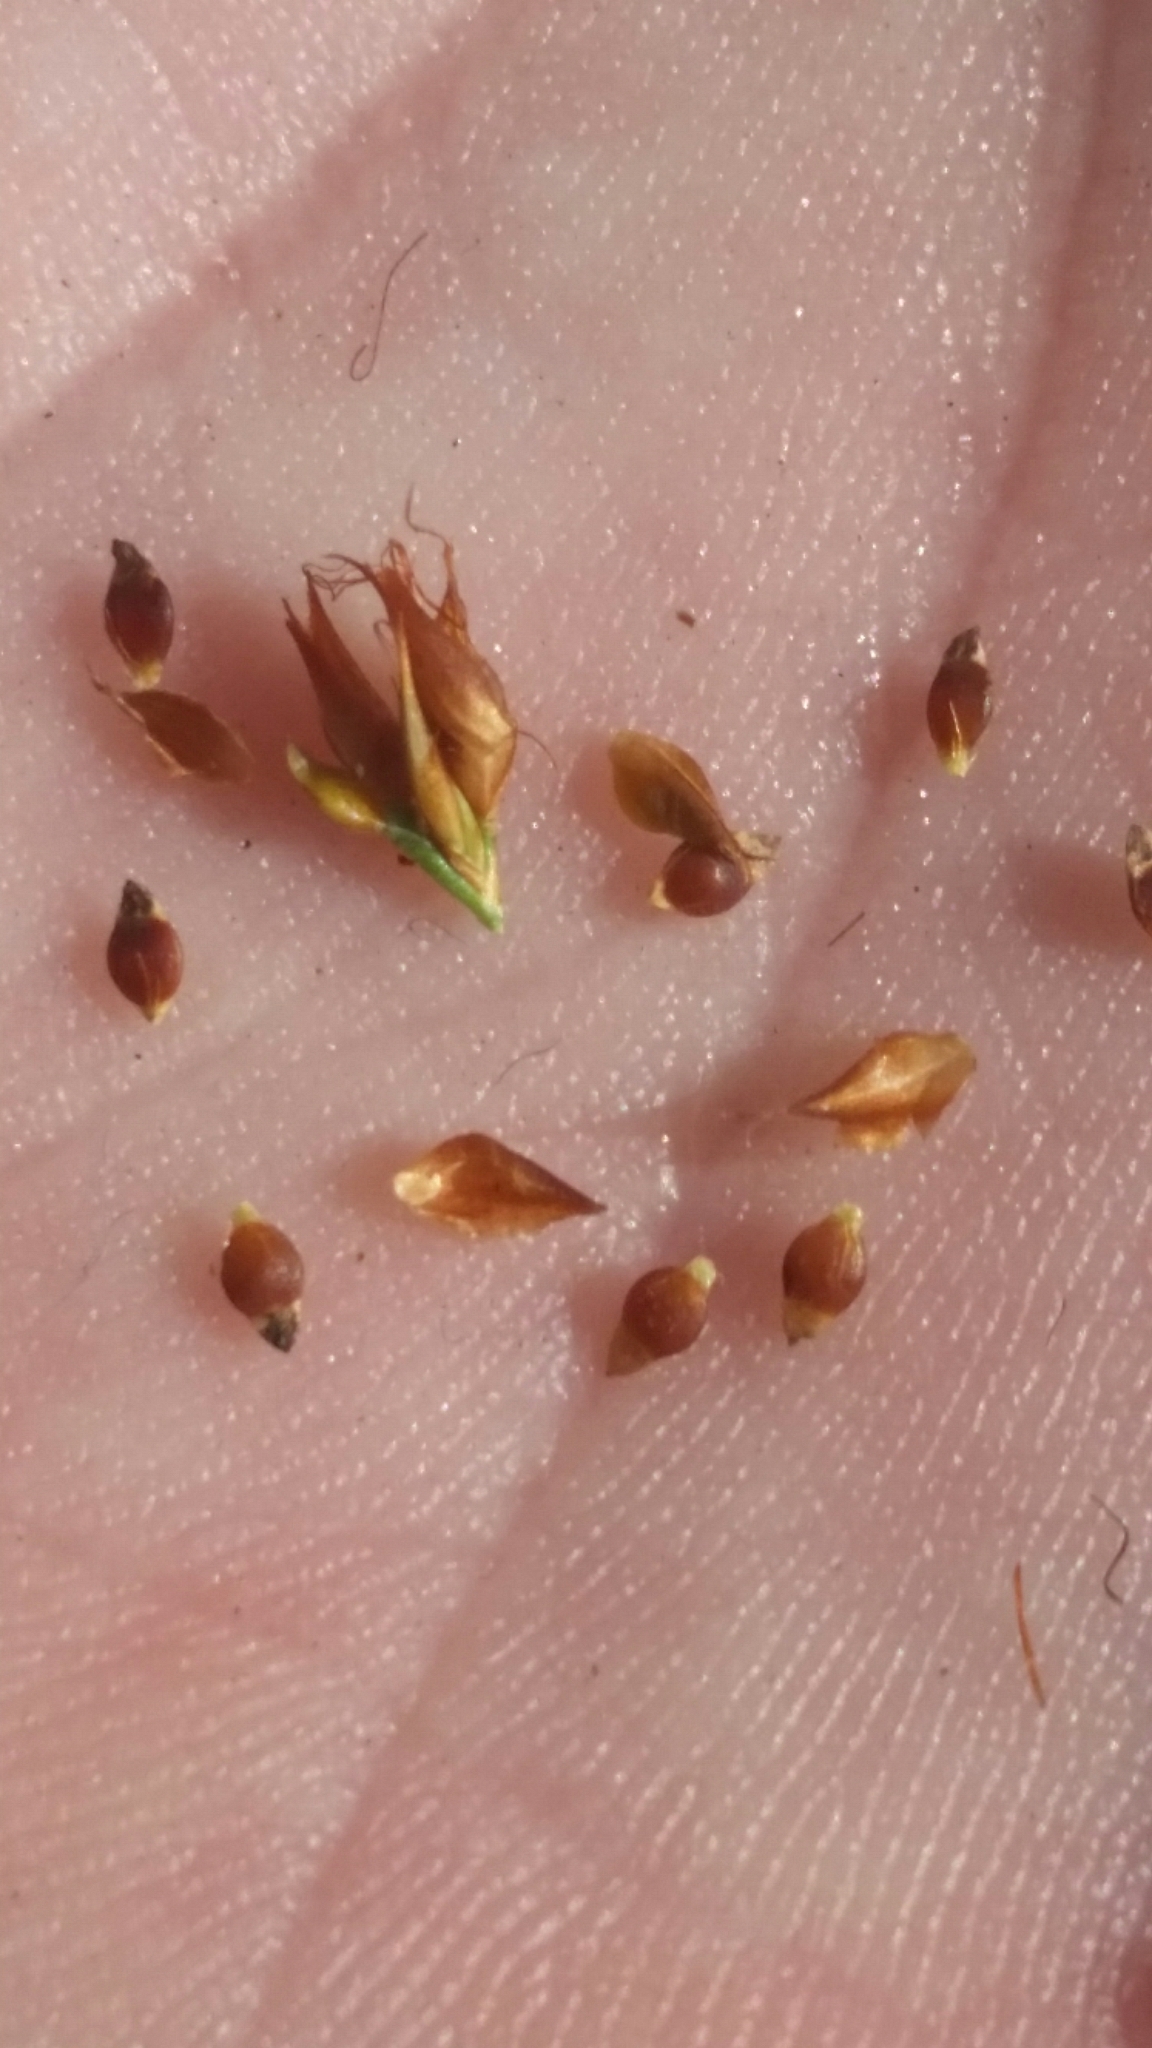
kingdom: Plantae
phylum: Tracheophyta
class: Liliopsida
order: Poales
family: Cyperaceae
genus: Rhynchospora
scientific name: Rhynchospora fascicularis
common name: Fascicled beak sedge
